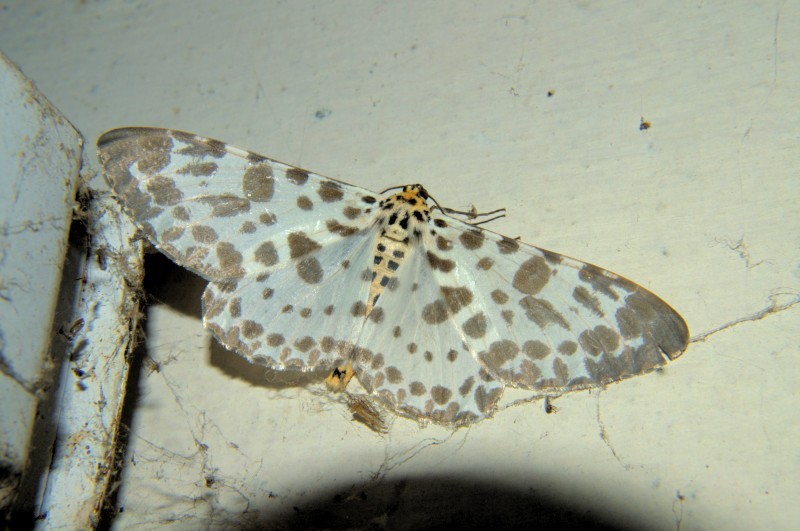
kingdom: Animalia
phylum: Arthropoda
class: Insecta
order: Lepidoptera
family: Geometridae
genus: Parapercnia
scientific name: Parapercnia giraffata
